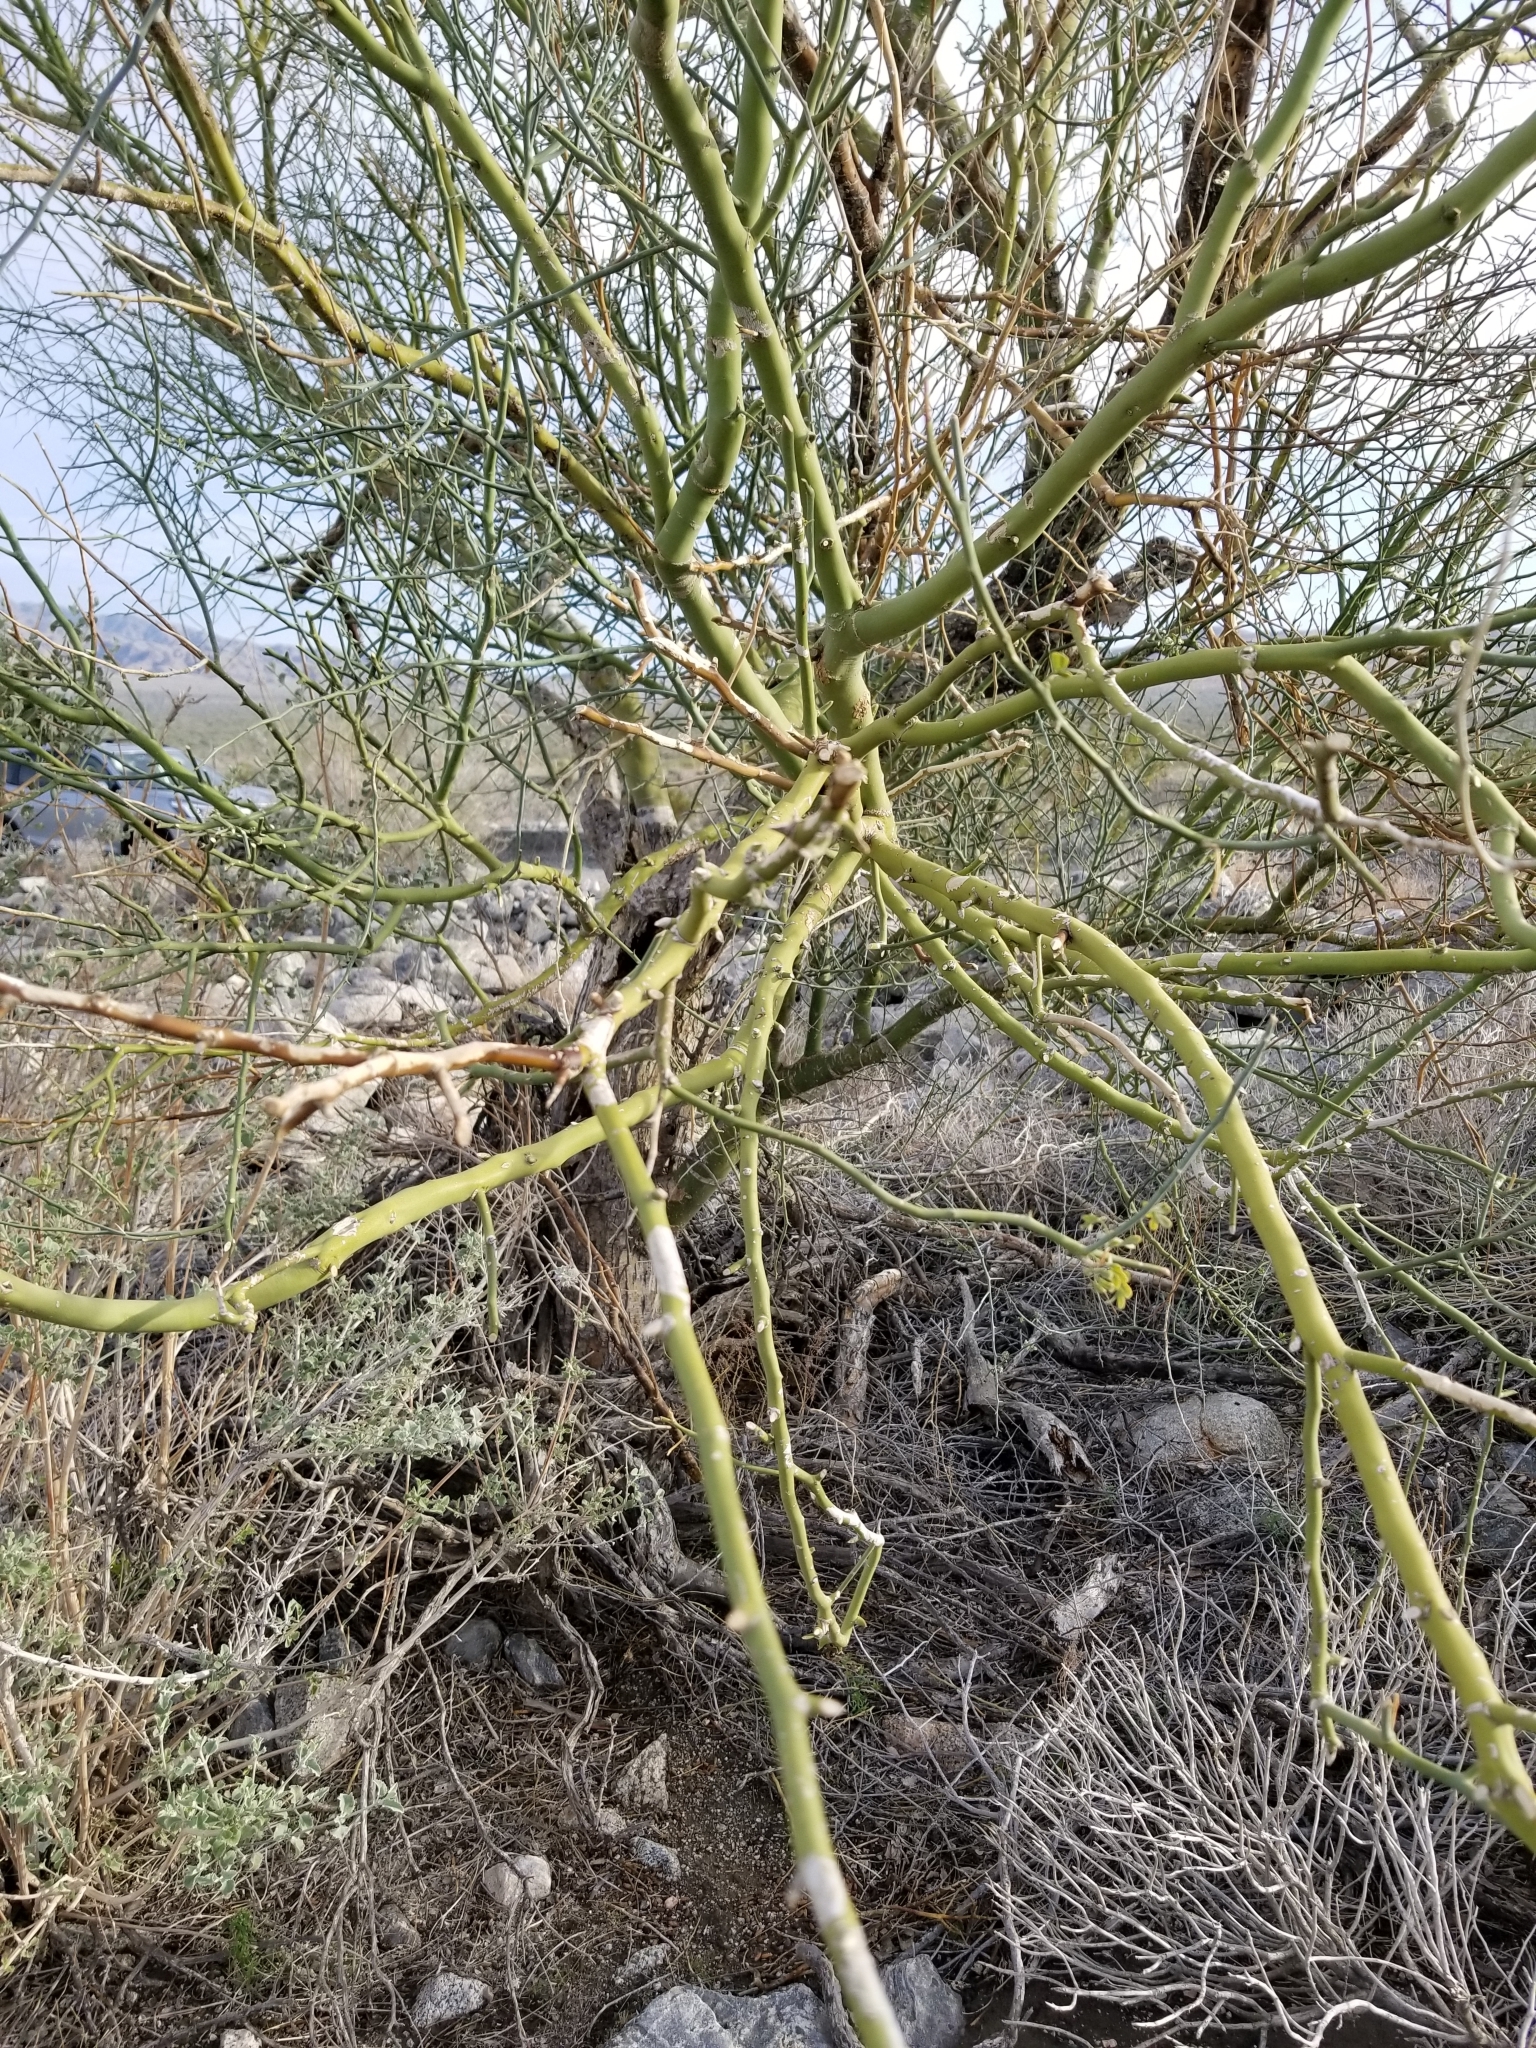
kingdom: Plantae
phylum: Tracheophyta
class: Magnoliopsida
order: Fabales
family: Fabaceae
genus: Parkinsonia
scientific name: Parkinsonia florida
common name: Blue paloverde
